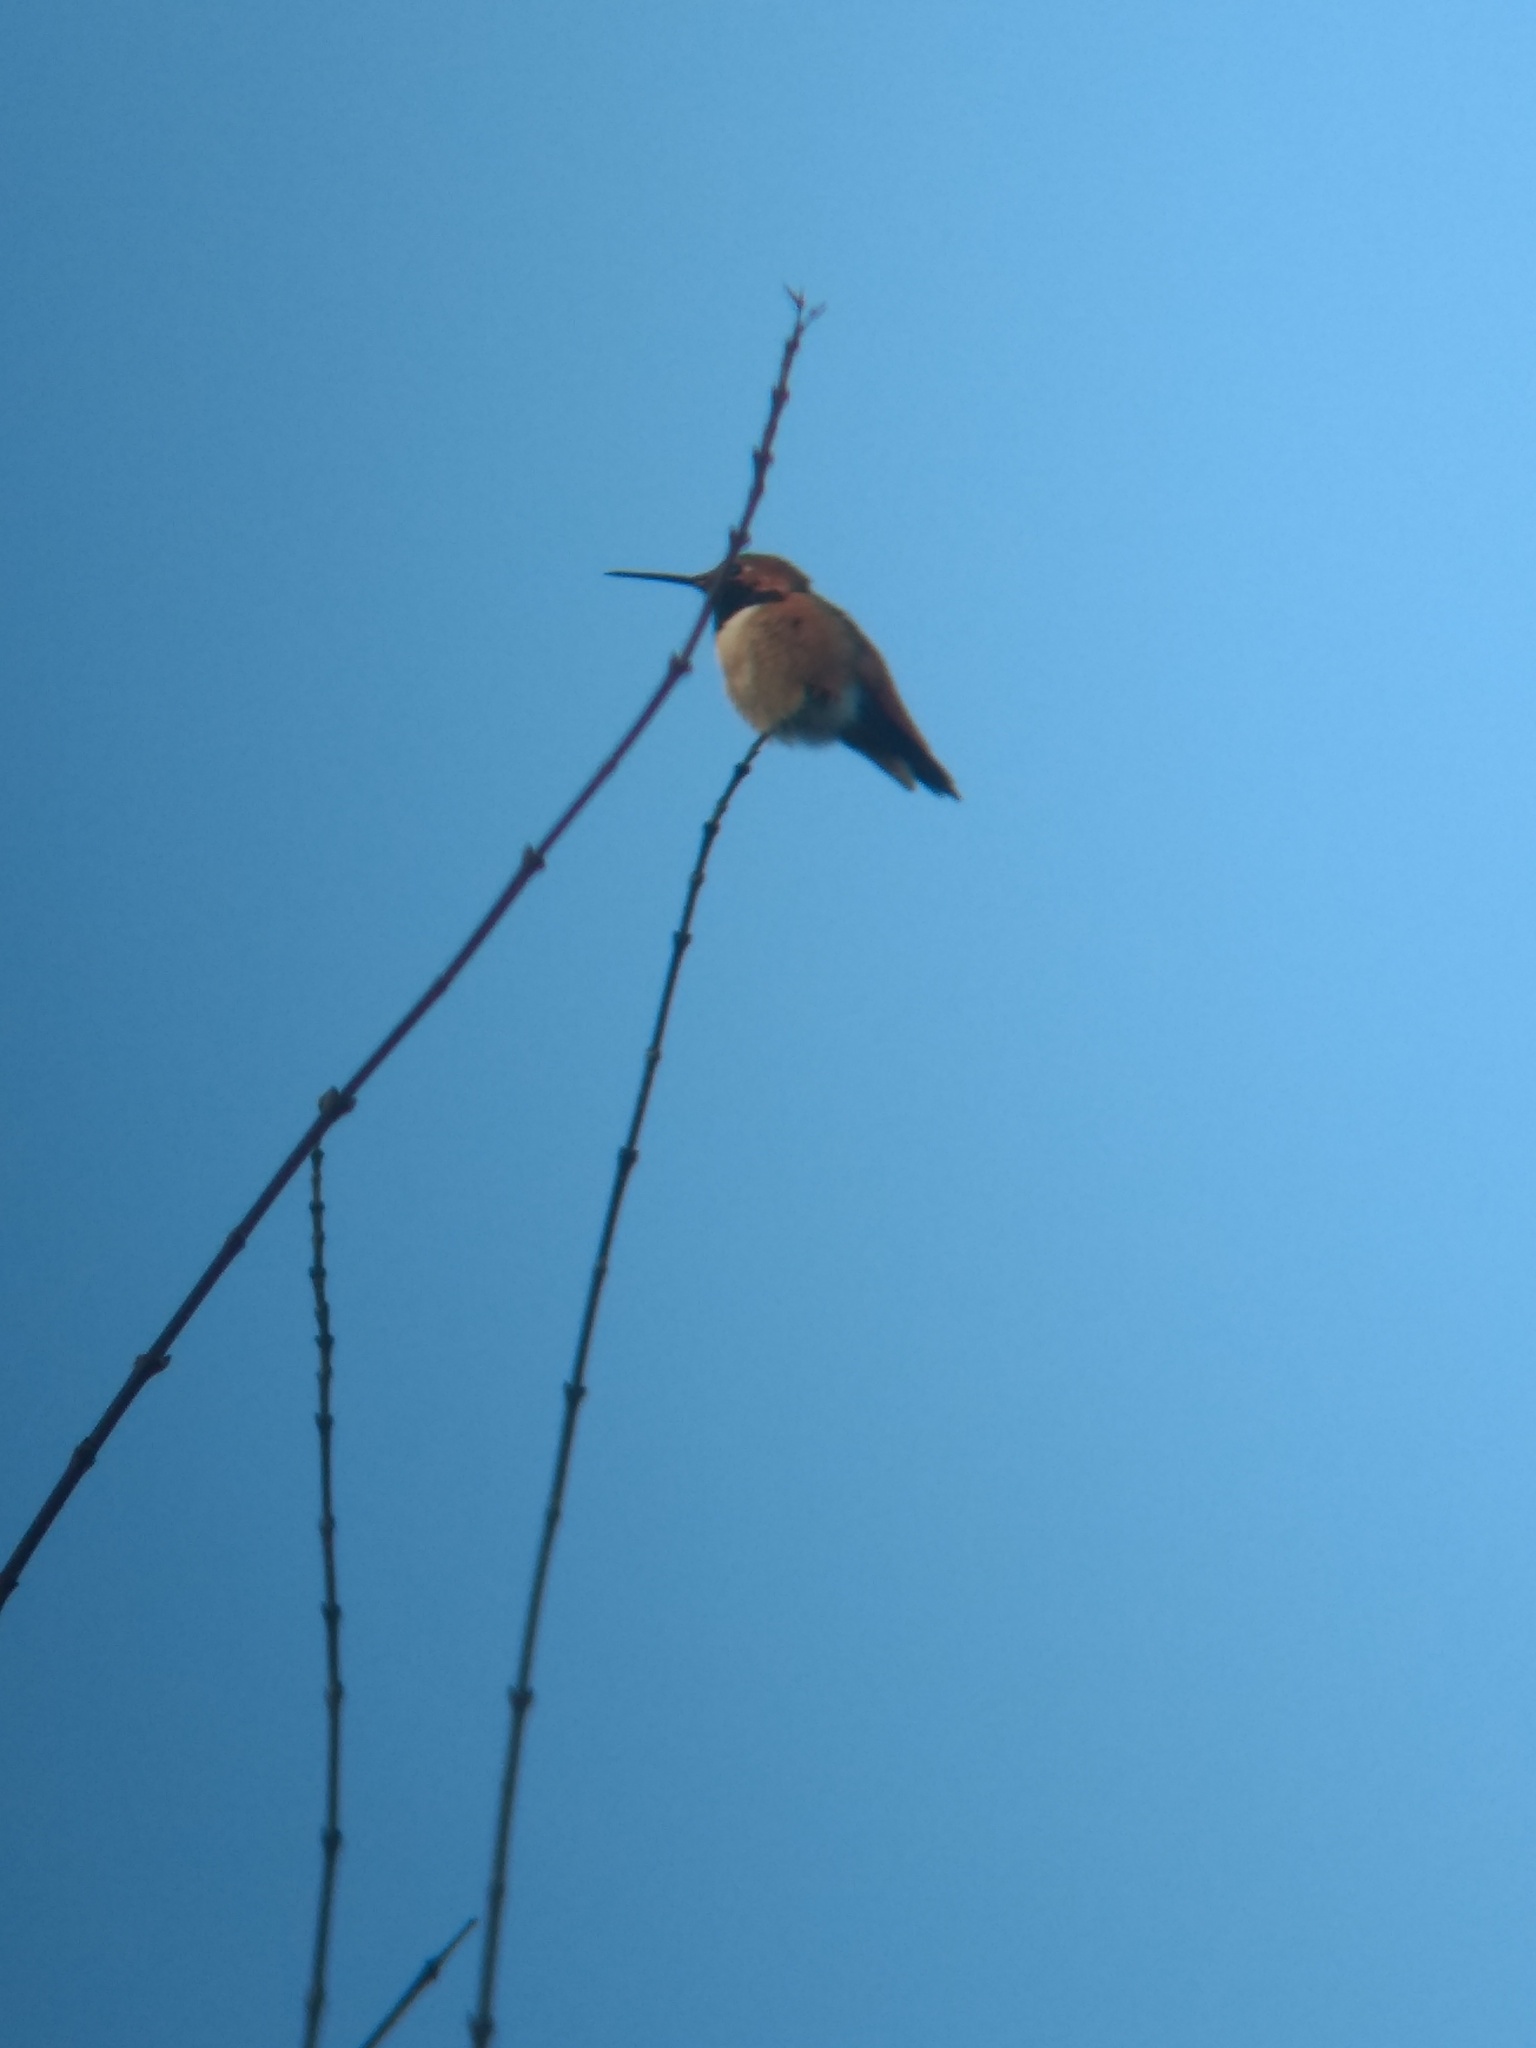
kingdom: Animalia
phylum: Chordata
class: Aves
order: Apodiformes
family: Trochilidae
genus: Selasphorus
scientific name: Selasphorus sasin
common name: Allen's hummingbird
